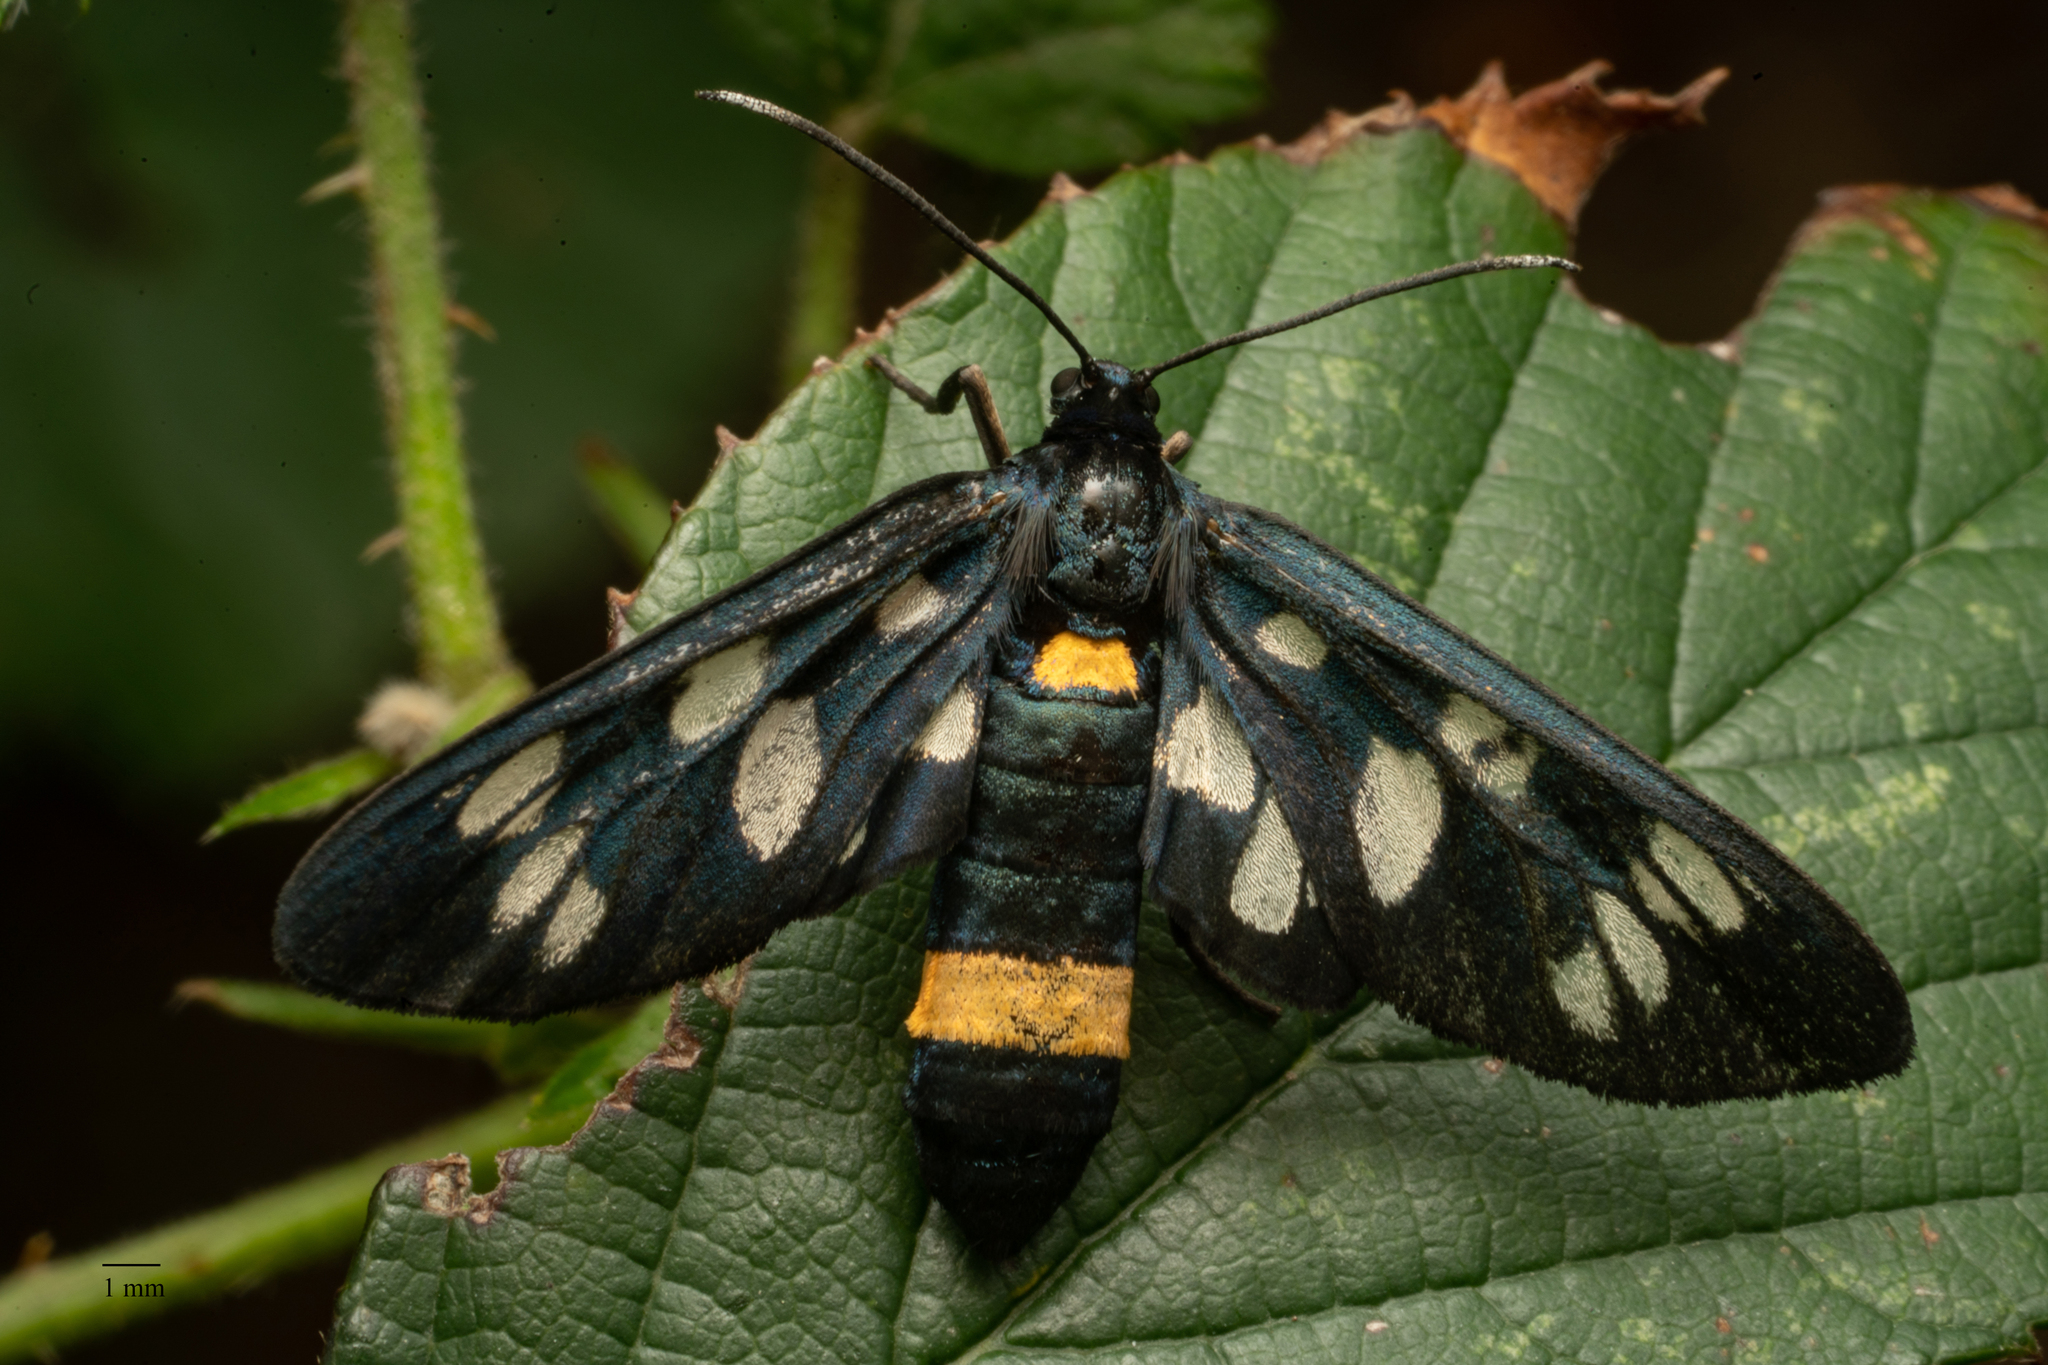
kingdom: Animalia
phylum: Arthropoda
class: Insecta
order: Lepidoptera
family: Erebidae
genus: Amata
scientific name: Amata phegea
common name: Nine-spotted
